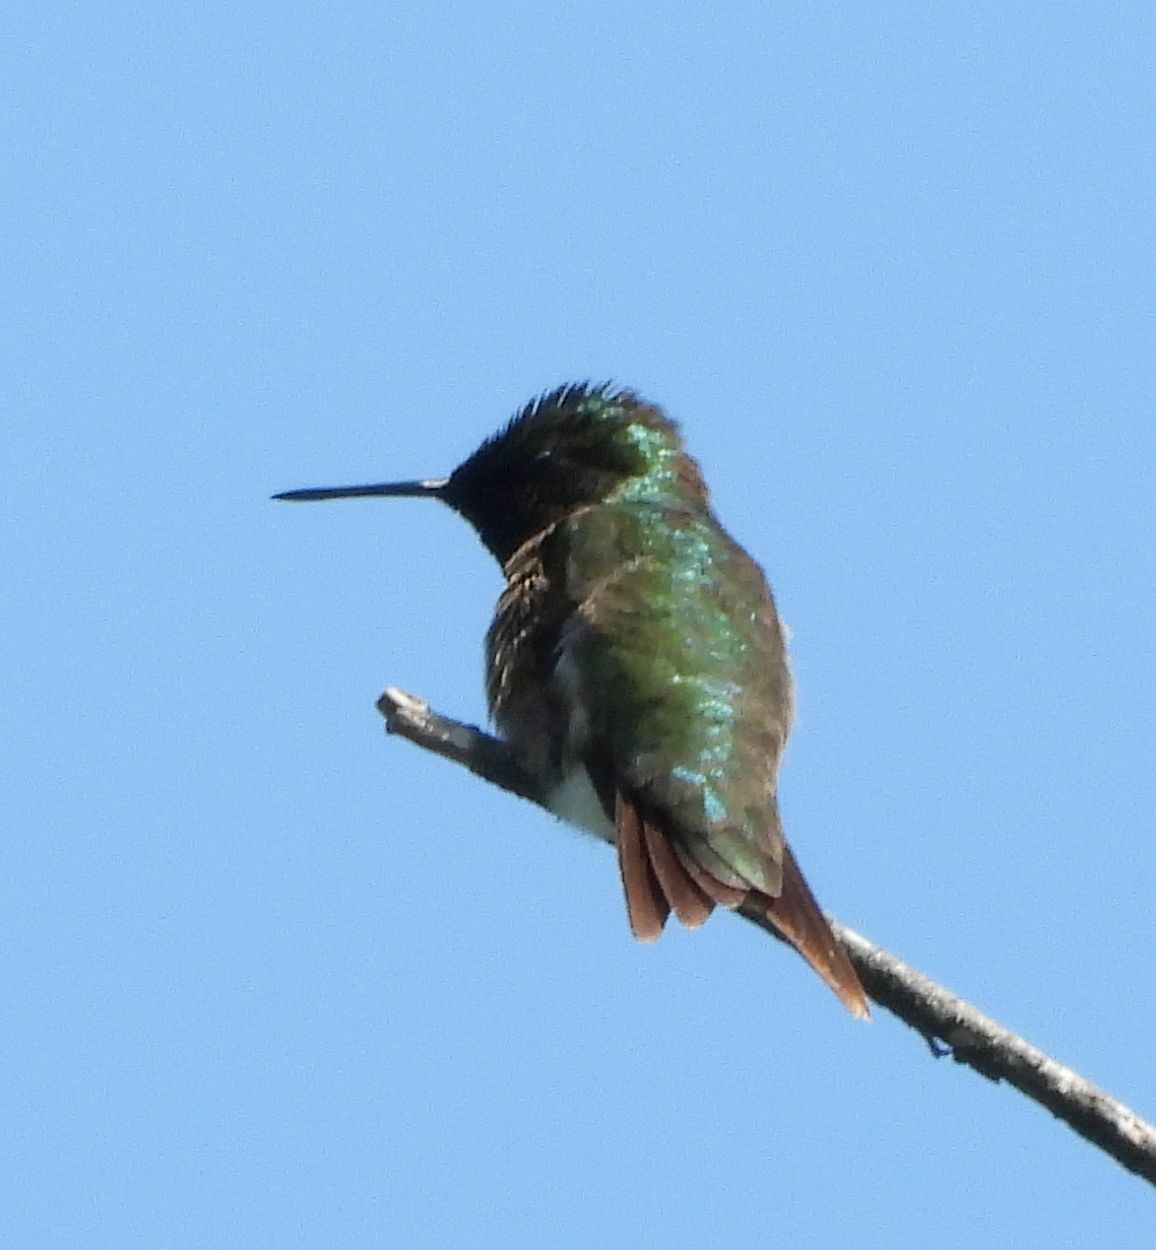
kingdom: Animalia
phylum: Chordata
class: Aves
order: Apodiformes
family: Trochilidae
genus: Archilochus
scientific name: Archilochus colubris
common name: Ruby-throated hummingbird
